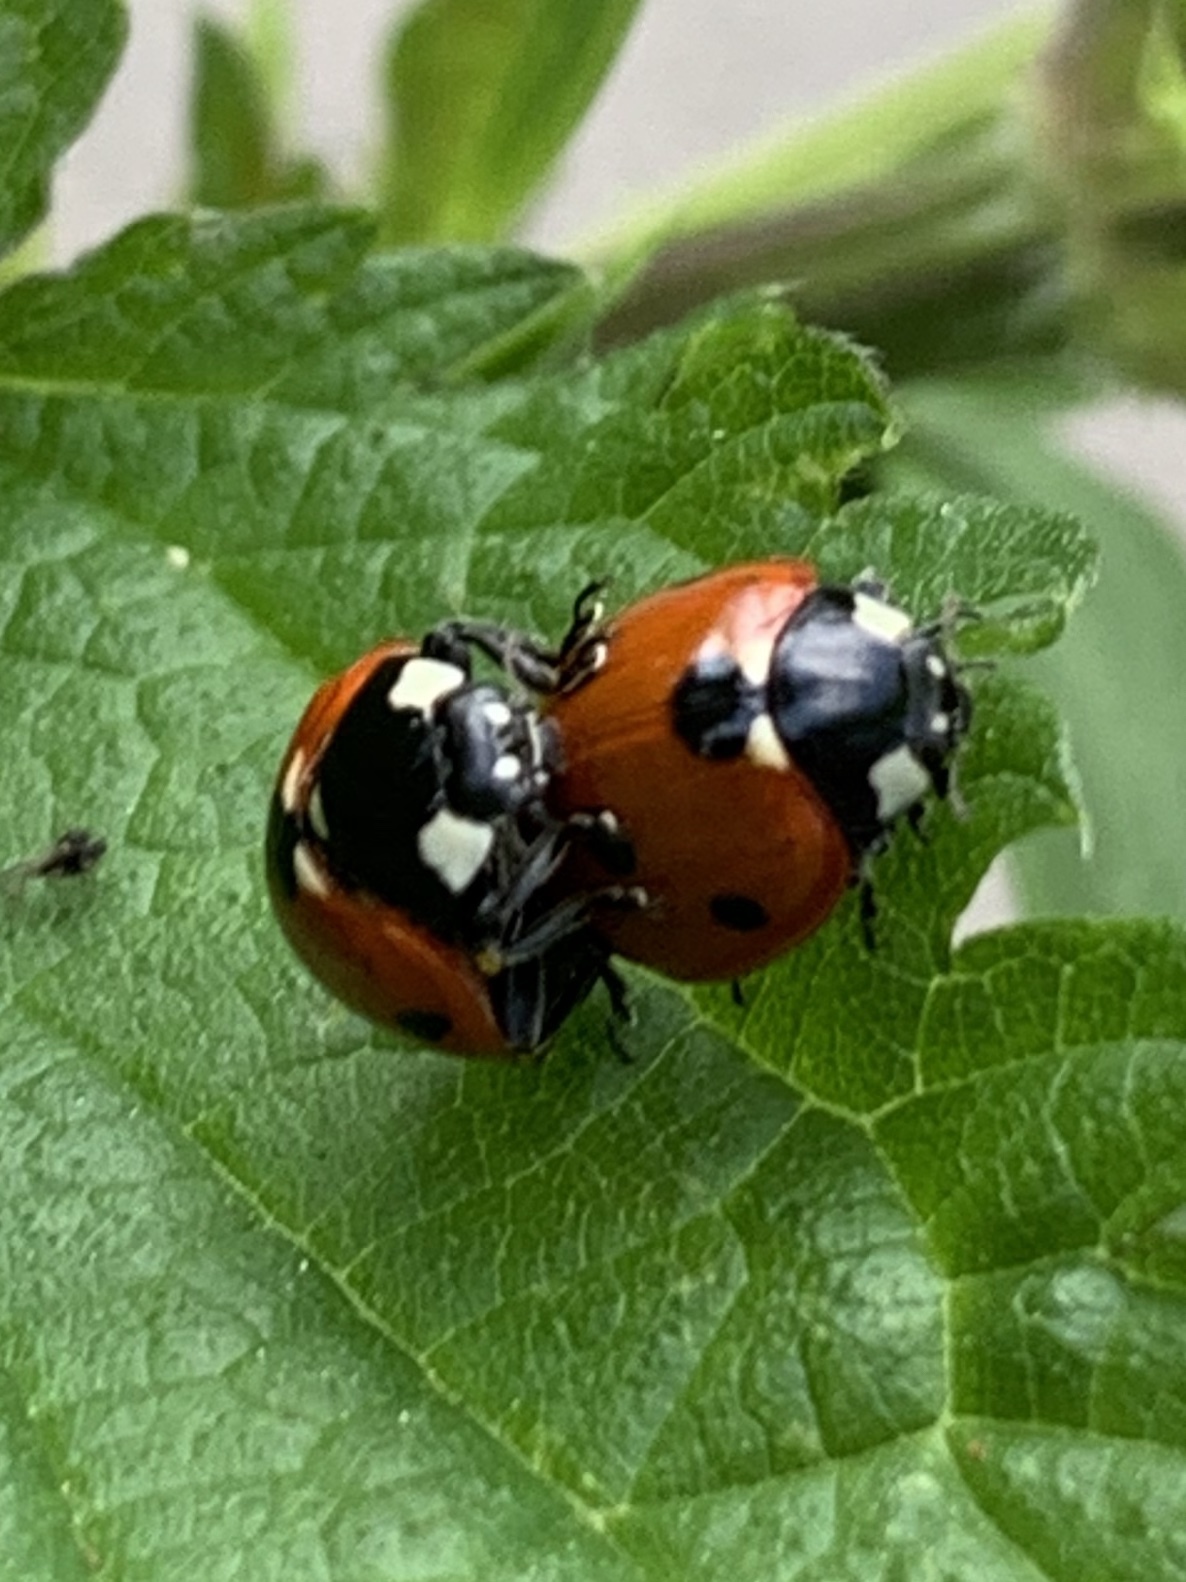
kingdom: Animalia
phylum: Arthropoda
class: Insecta
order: Coleoptera
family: Coccinellidae
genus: Coccinella
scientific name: Coccinella septempunctata
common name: Sevenspotted lady beetle
